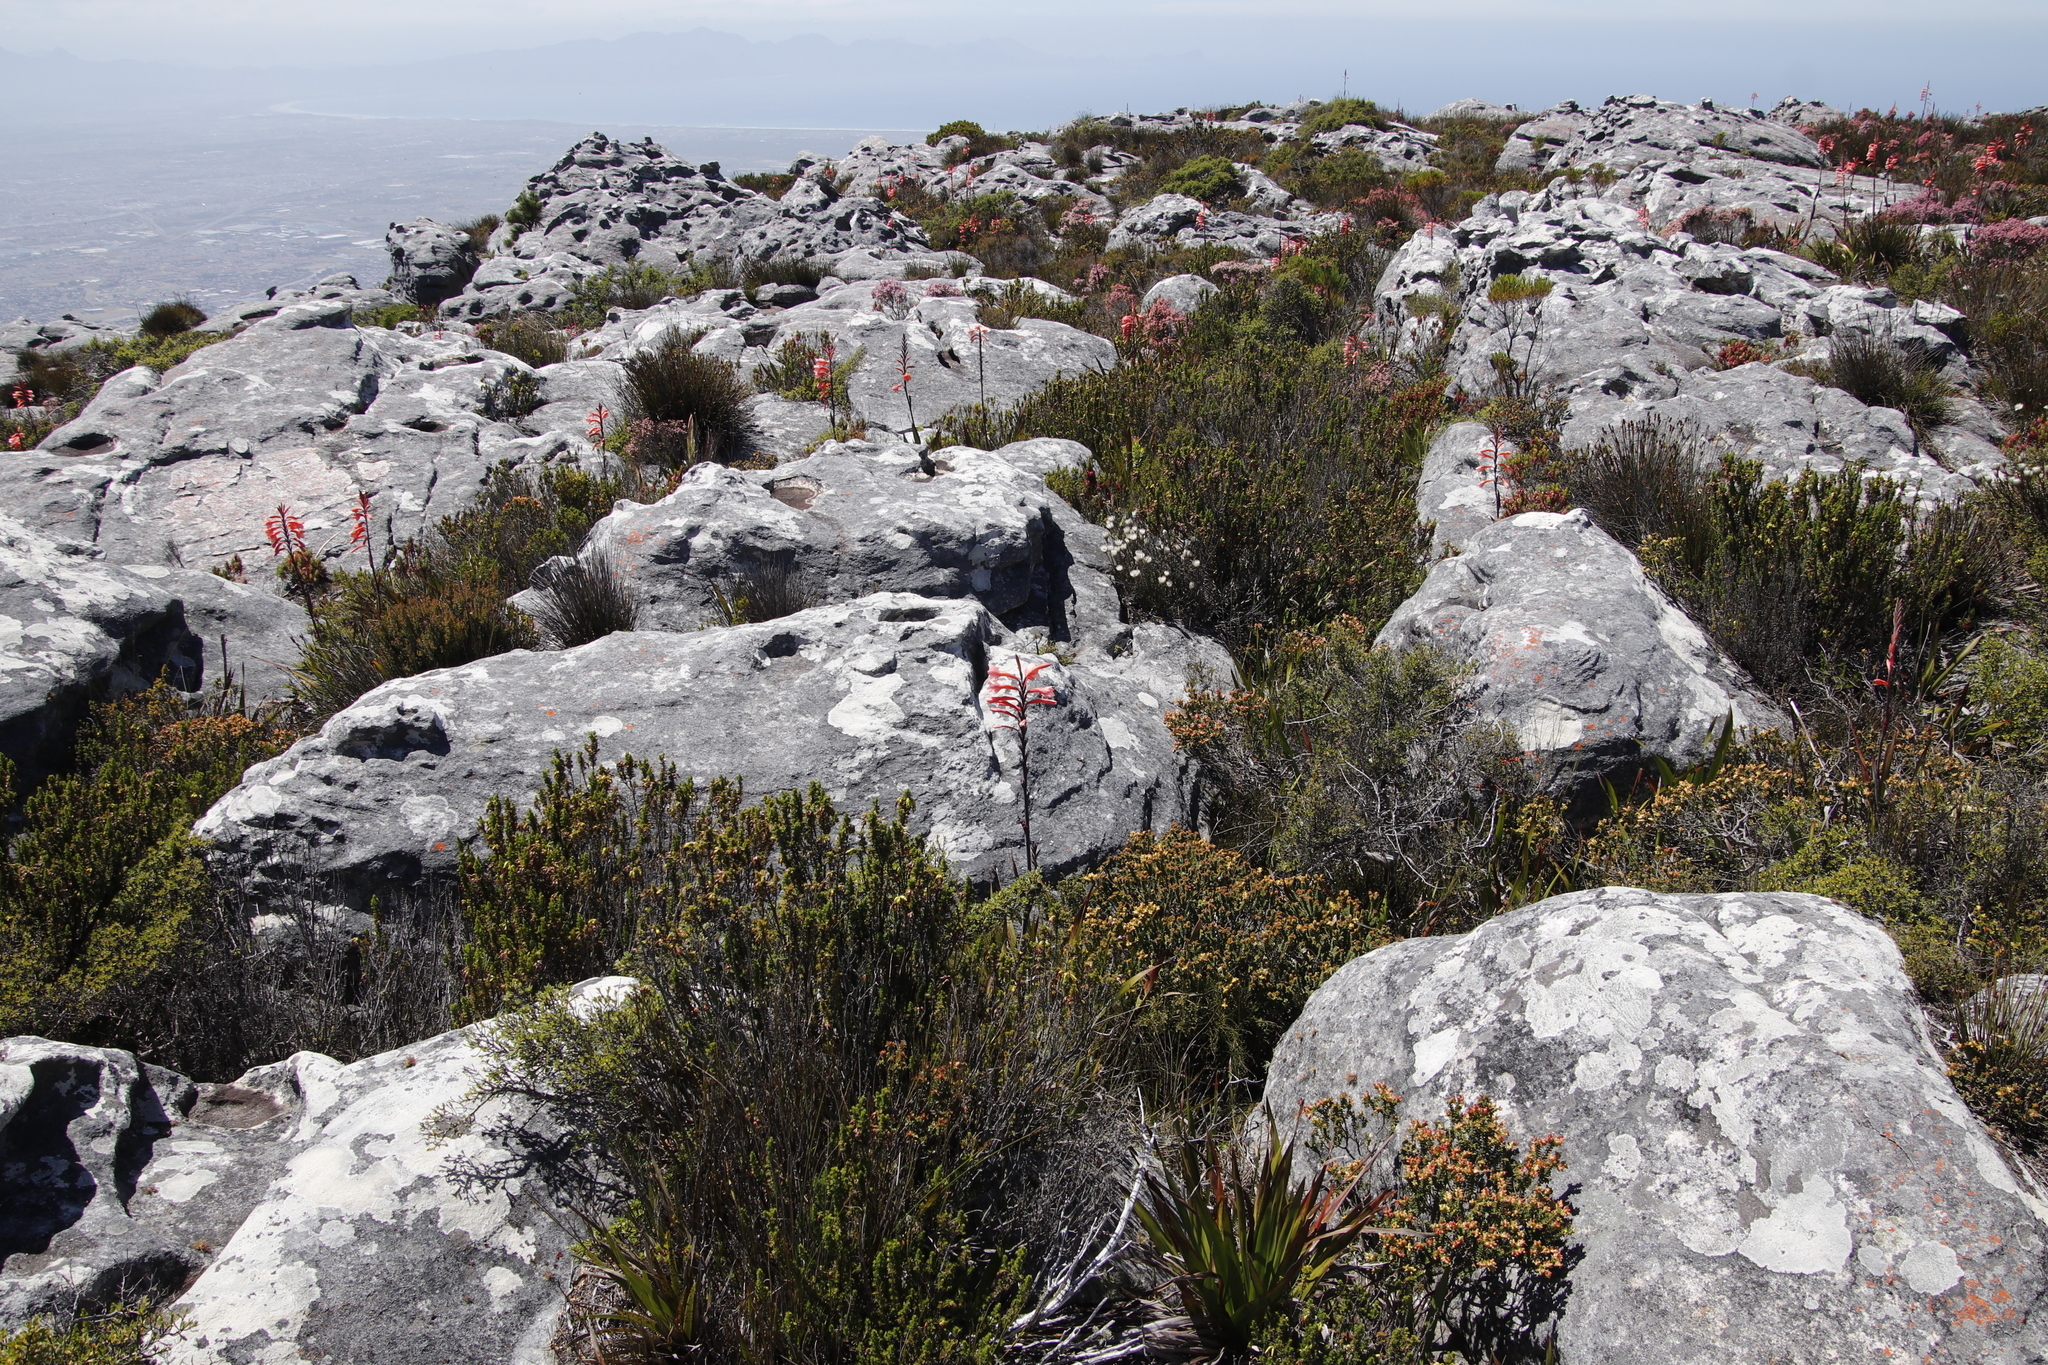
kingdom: Plantae
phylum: Tracheophyta
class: Magnoliopsida
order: Ericales
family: Ericaceae
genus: Erica
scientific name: Erica coccinea
